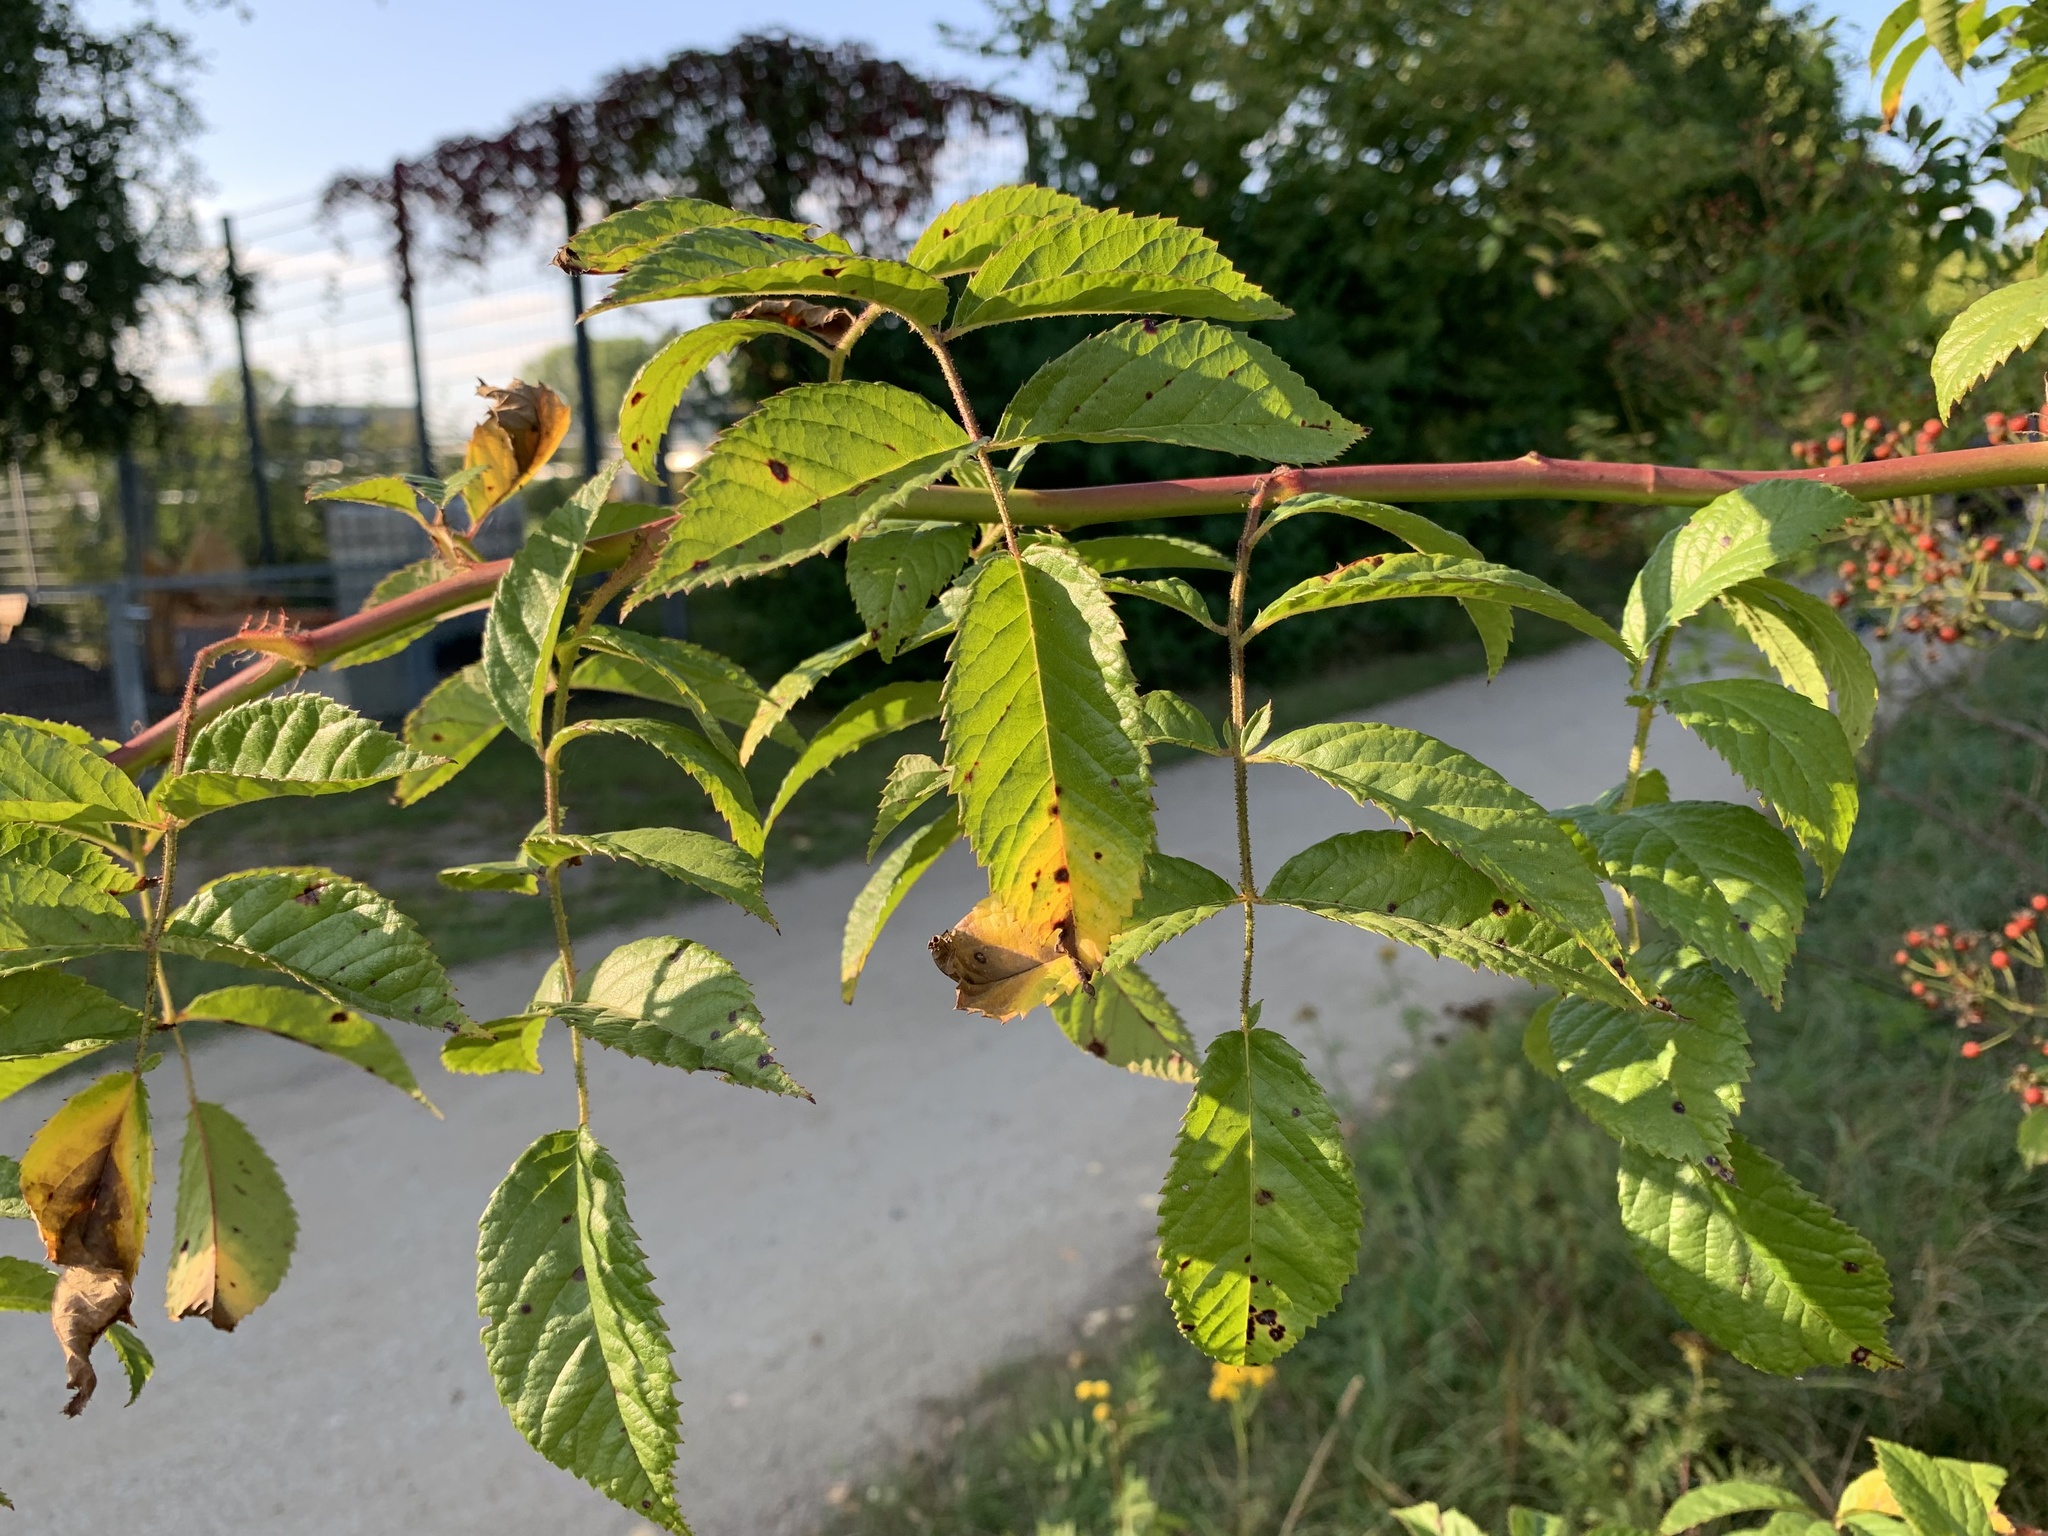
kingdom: Plantae
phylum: Tracheophyta
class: Magnoliopsida
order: Rosales
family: Rosaceae
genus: Rosa
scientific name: Rosa multiflora
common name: Multiflora rose
